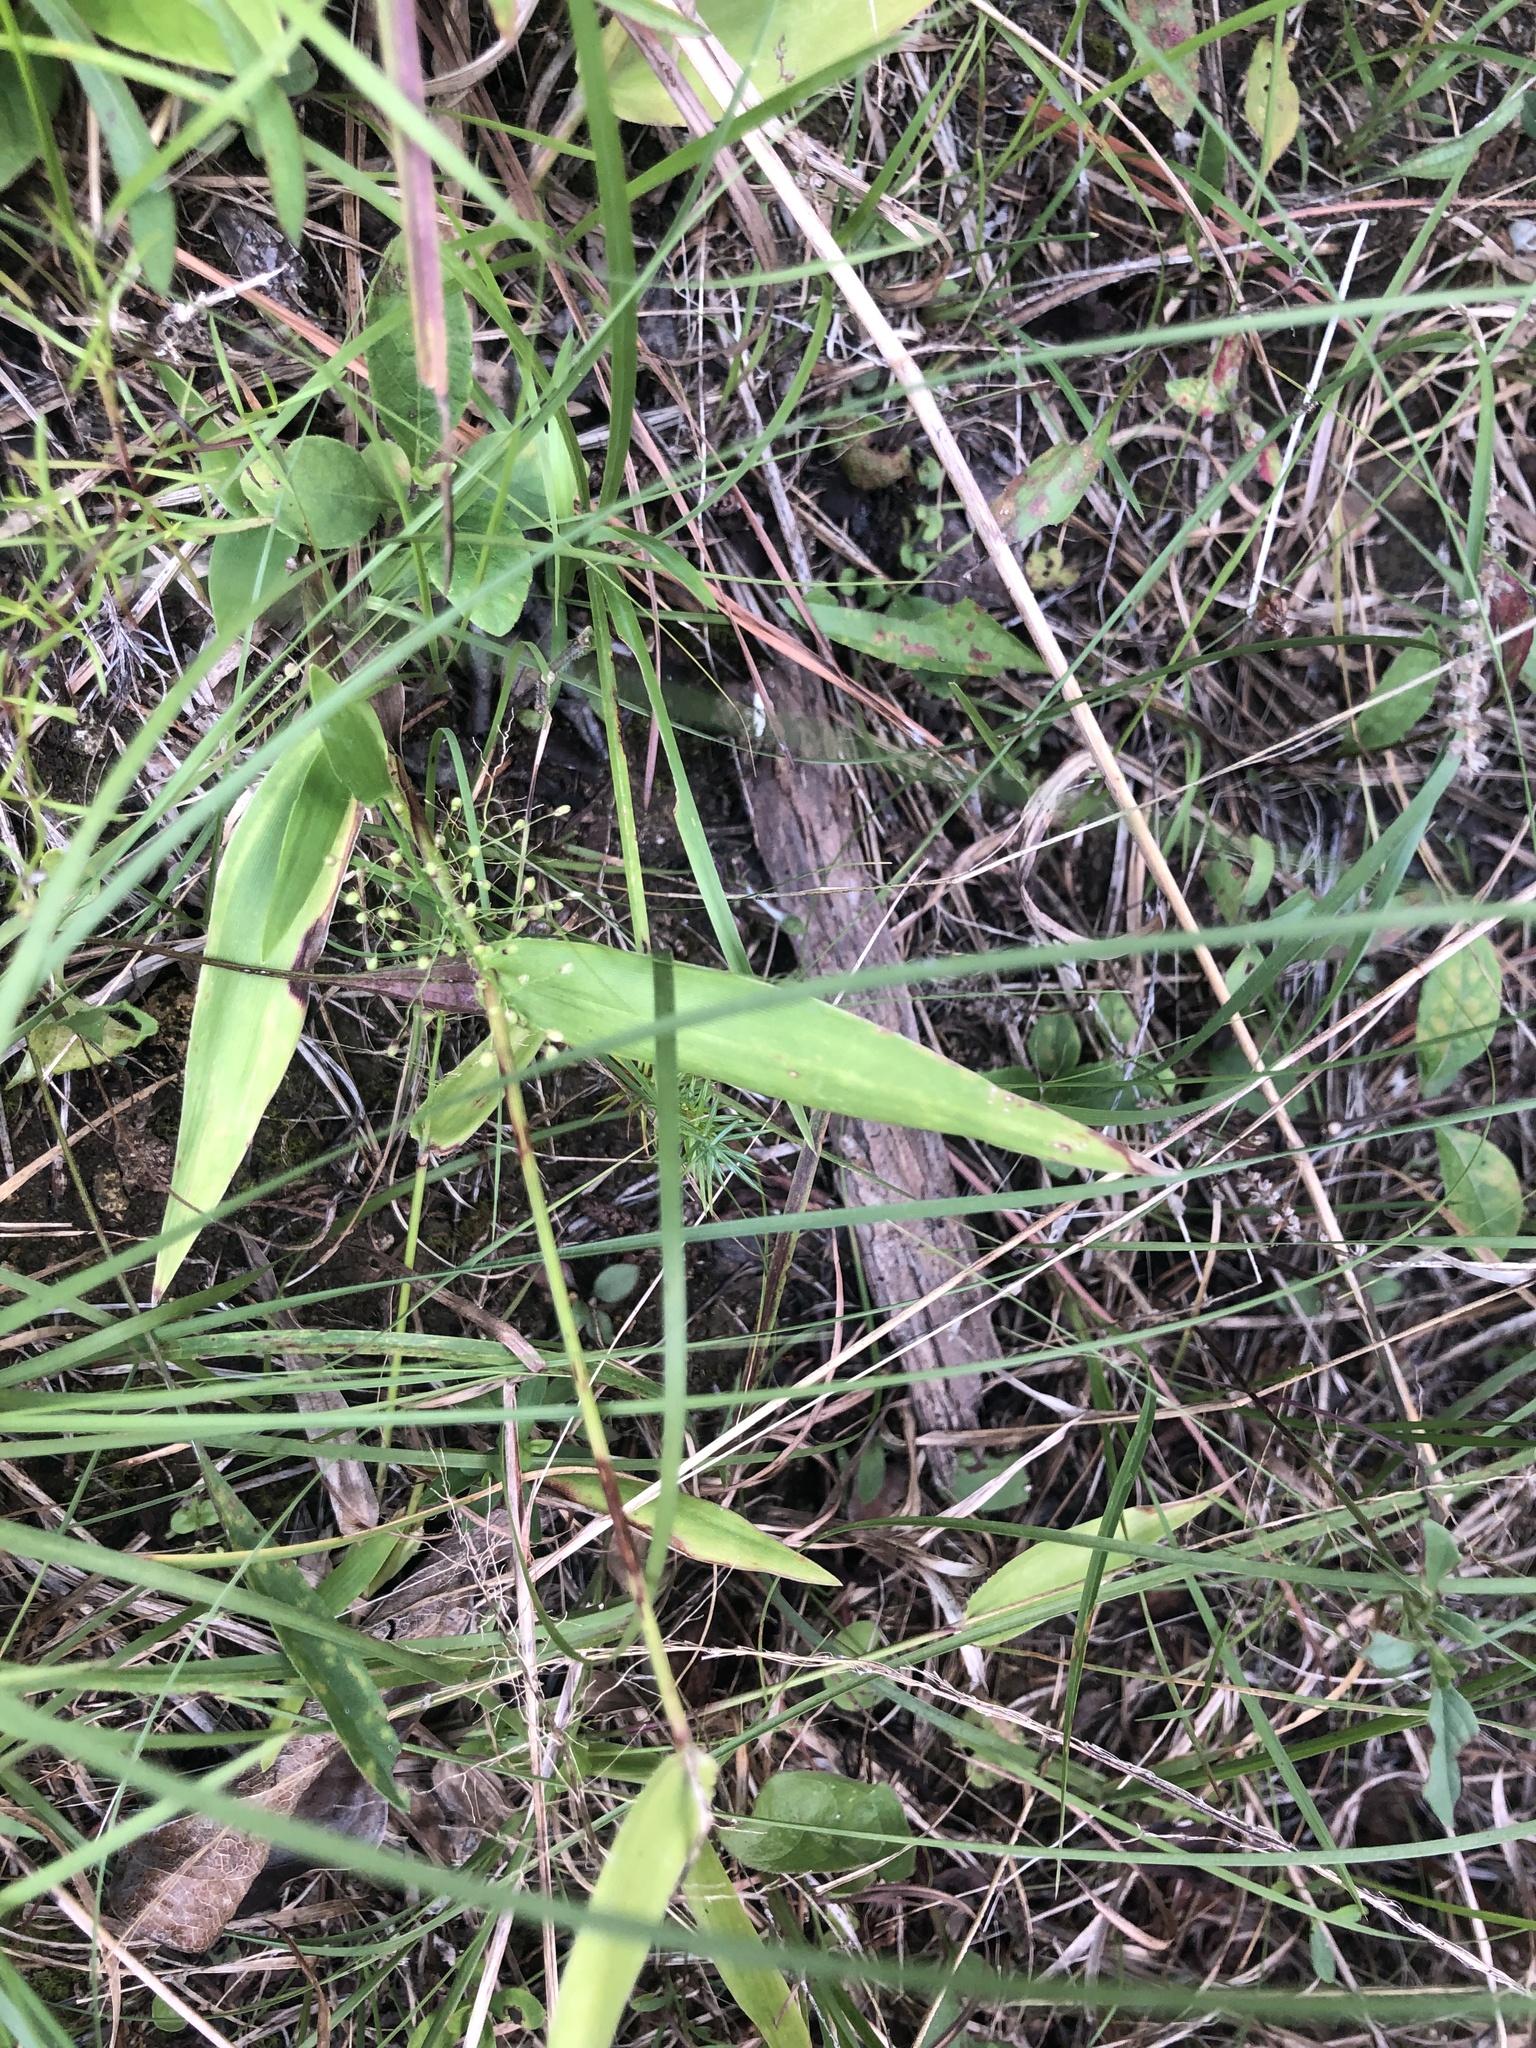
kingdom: Plantae
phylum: Tracheophyta
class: Liliopsida
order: Poales
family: Poaceae
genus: Dichanthelium
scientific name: Dichanthelium sphaerocarpon
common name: Round-fruited panicgrass
